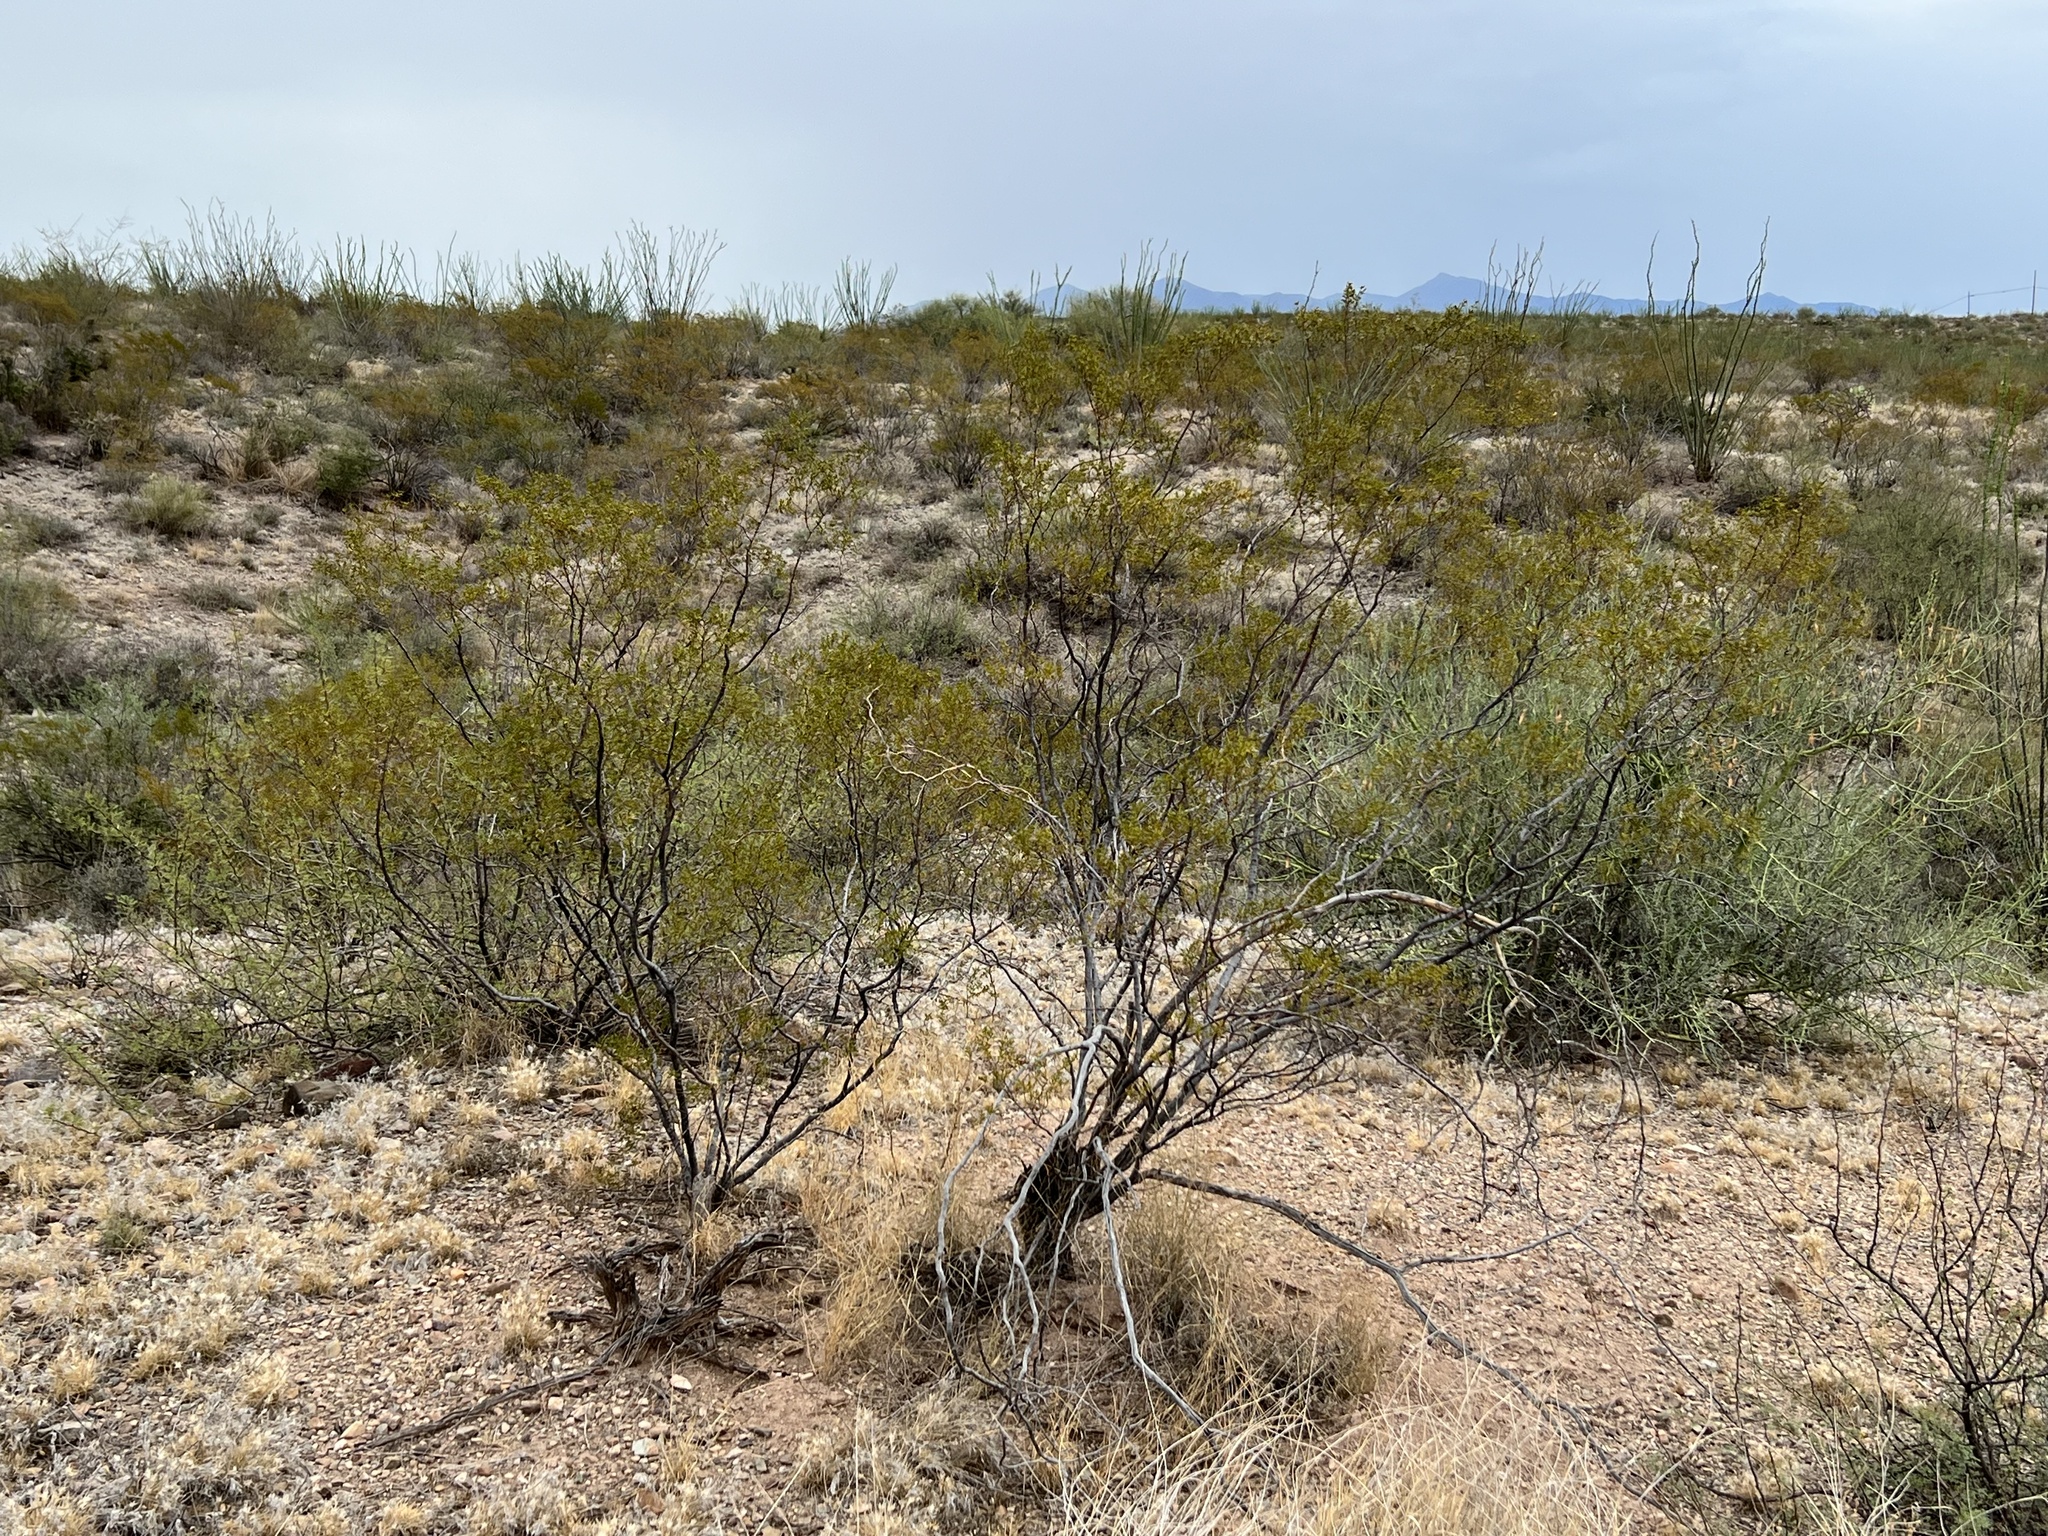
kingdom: Plantae
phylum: Tracheophyta
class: Magnoliopsida
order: Zygophyllales
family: Zygophyllaceae
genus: Larrea
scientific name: Larrea tridentata
